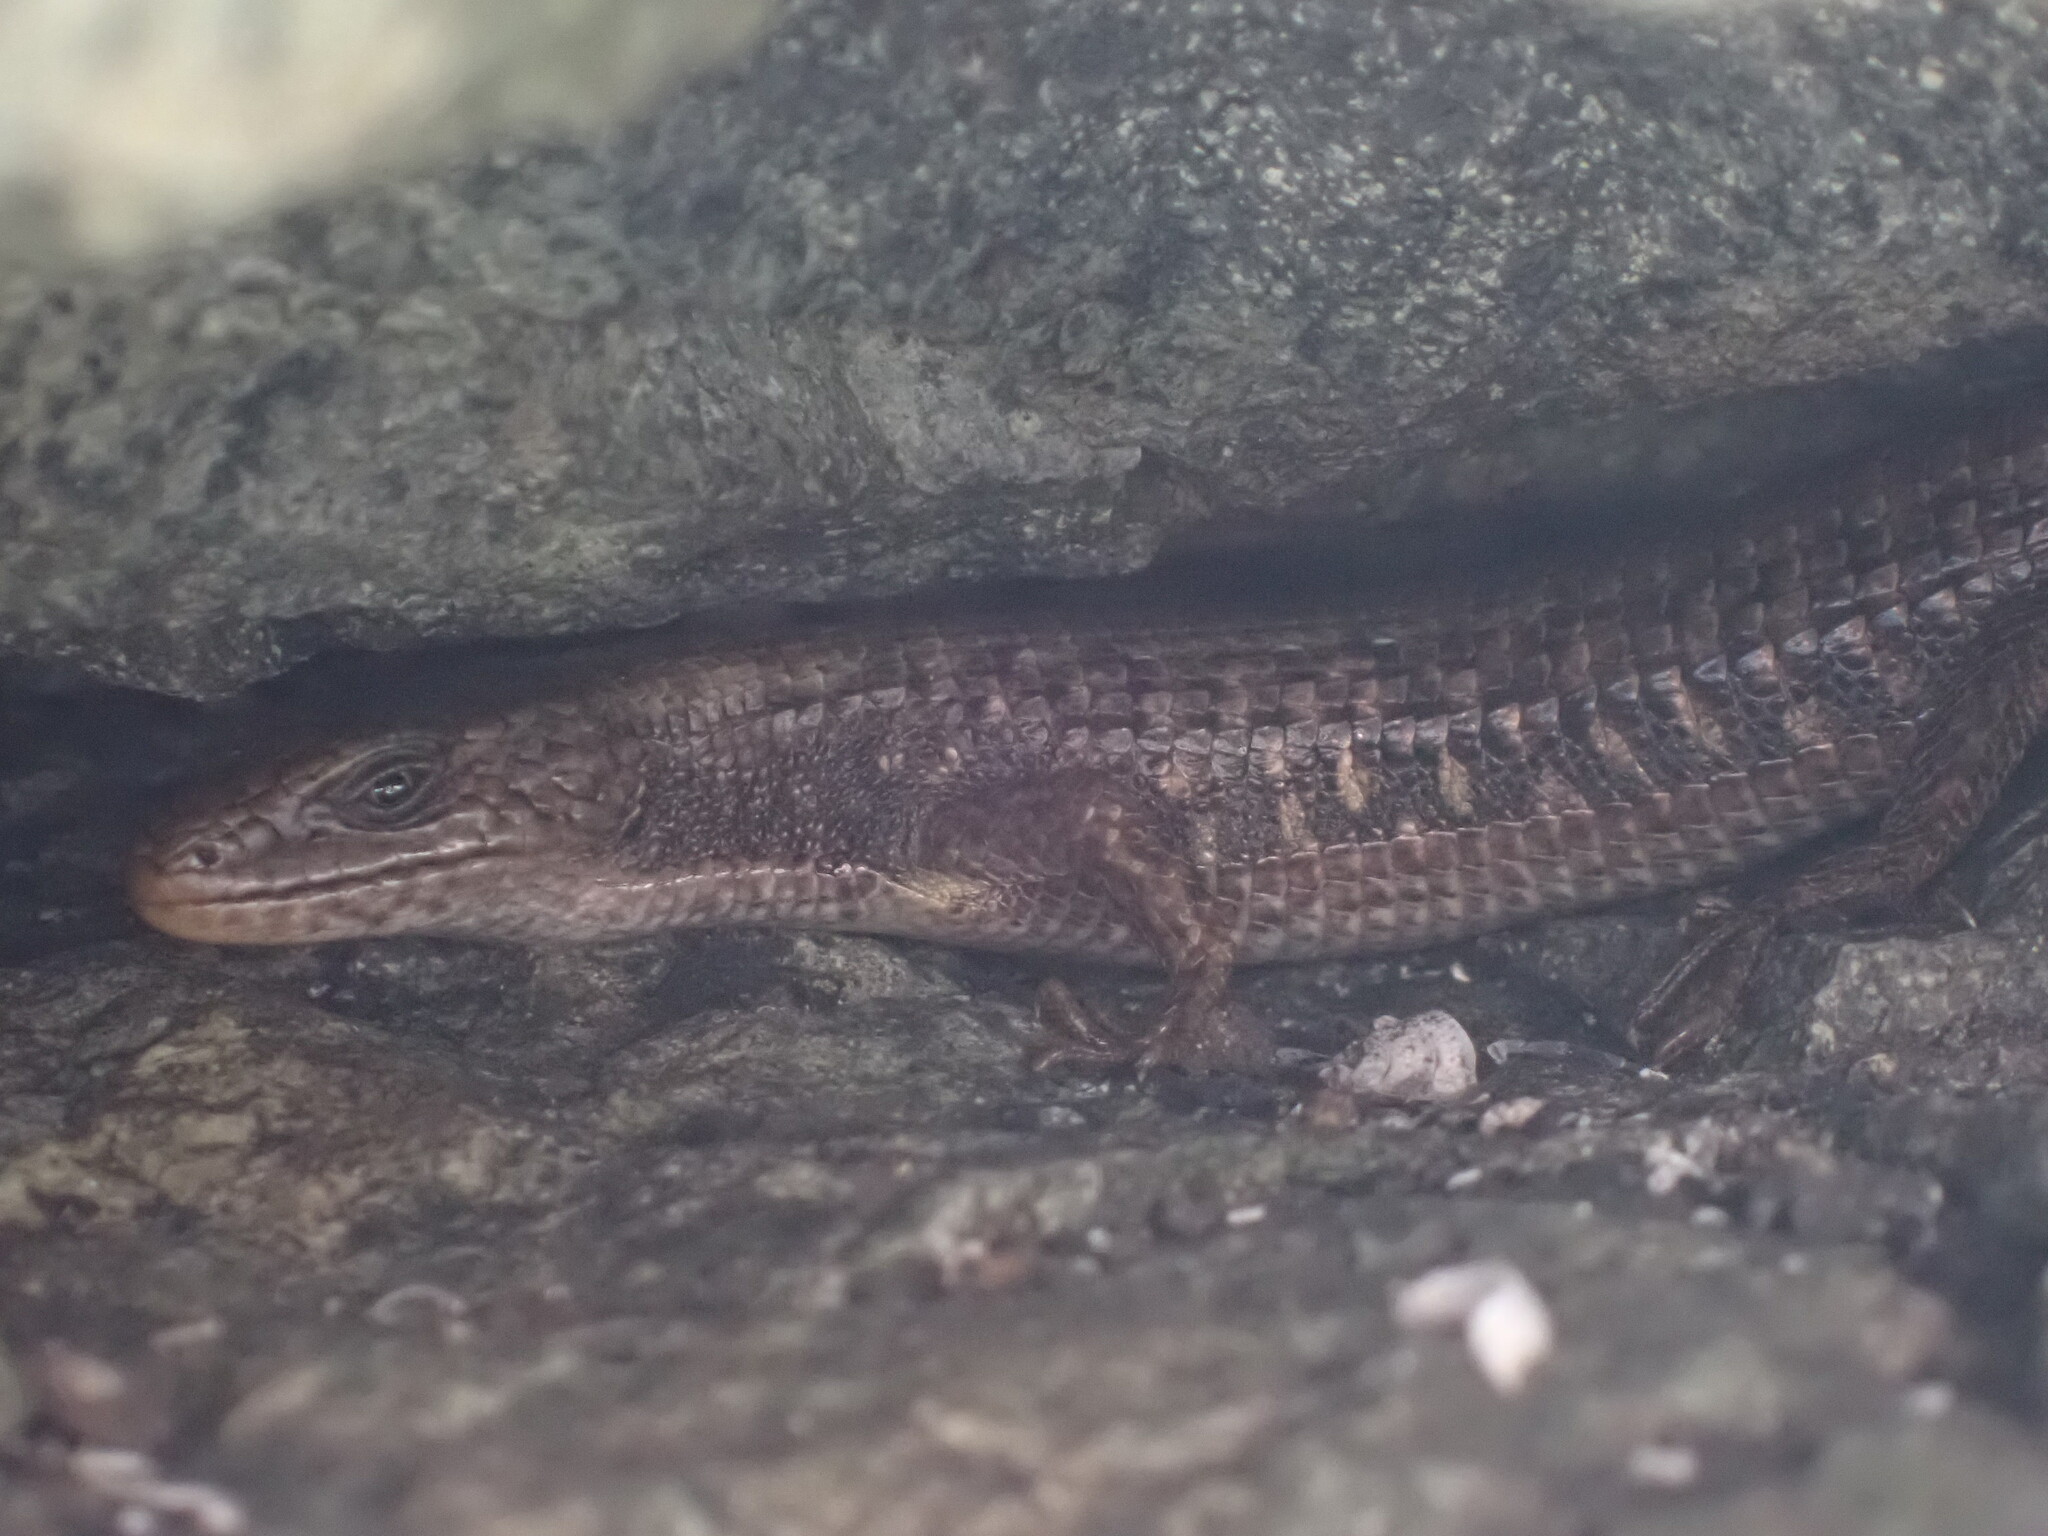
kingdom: Animalia
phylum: Chordata
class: Squamata
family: Anguidae
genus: Elgaria
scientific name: Elgaria coerulea
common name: Northern alligator lizard
